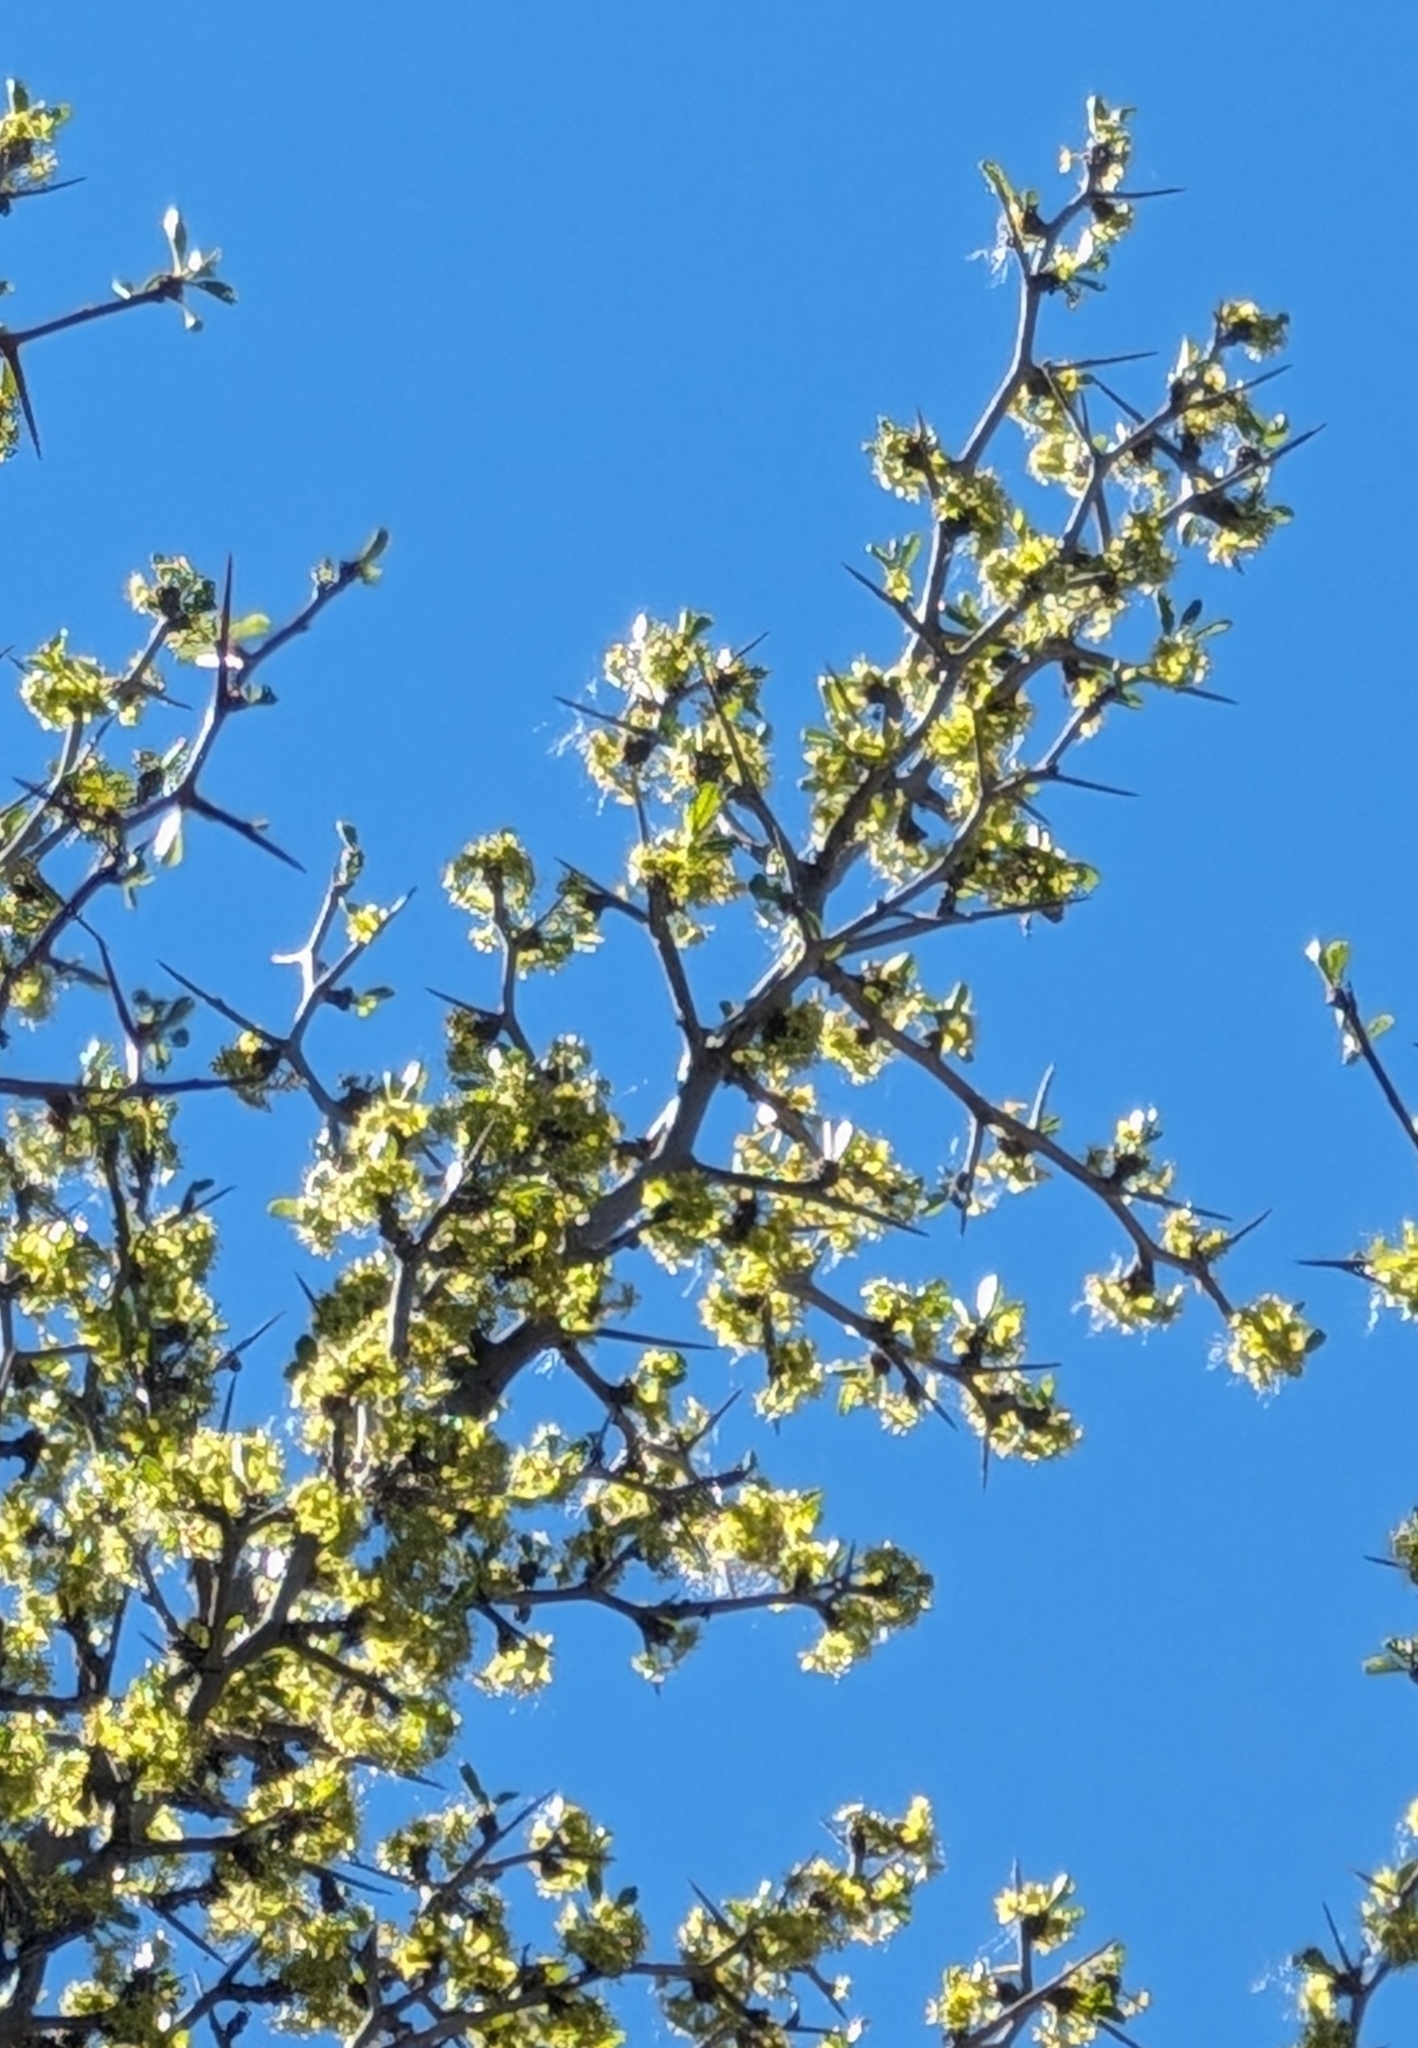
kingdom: Plantae
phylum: Tracheophyta
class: Magnoliopsida
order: Rosales
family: Rhamnaceae
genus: Pseudoziziphus
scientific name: Pseudoziziphus parryi
